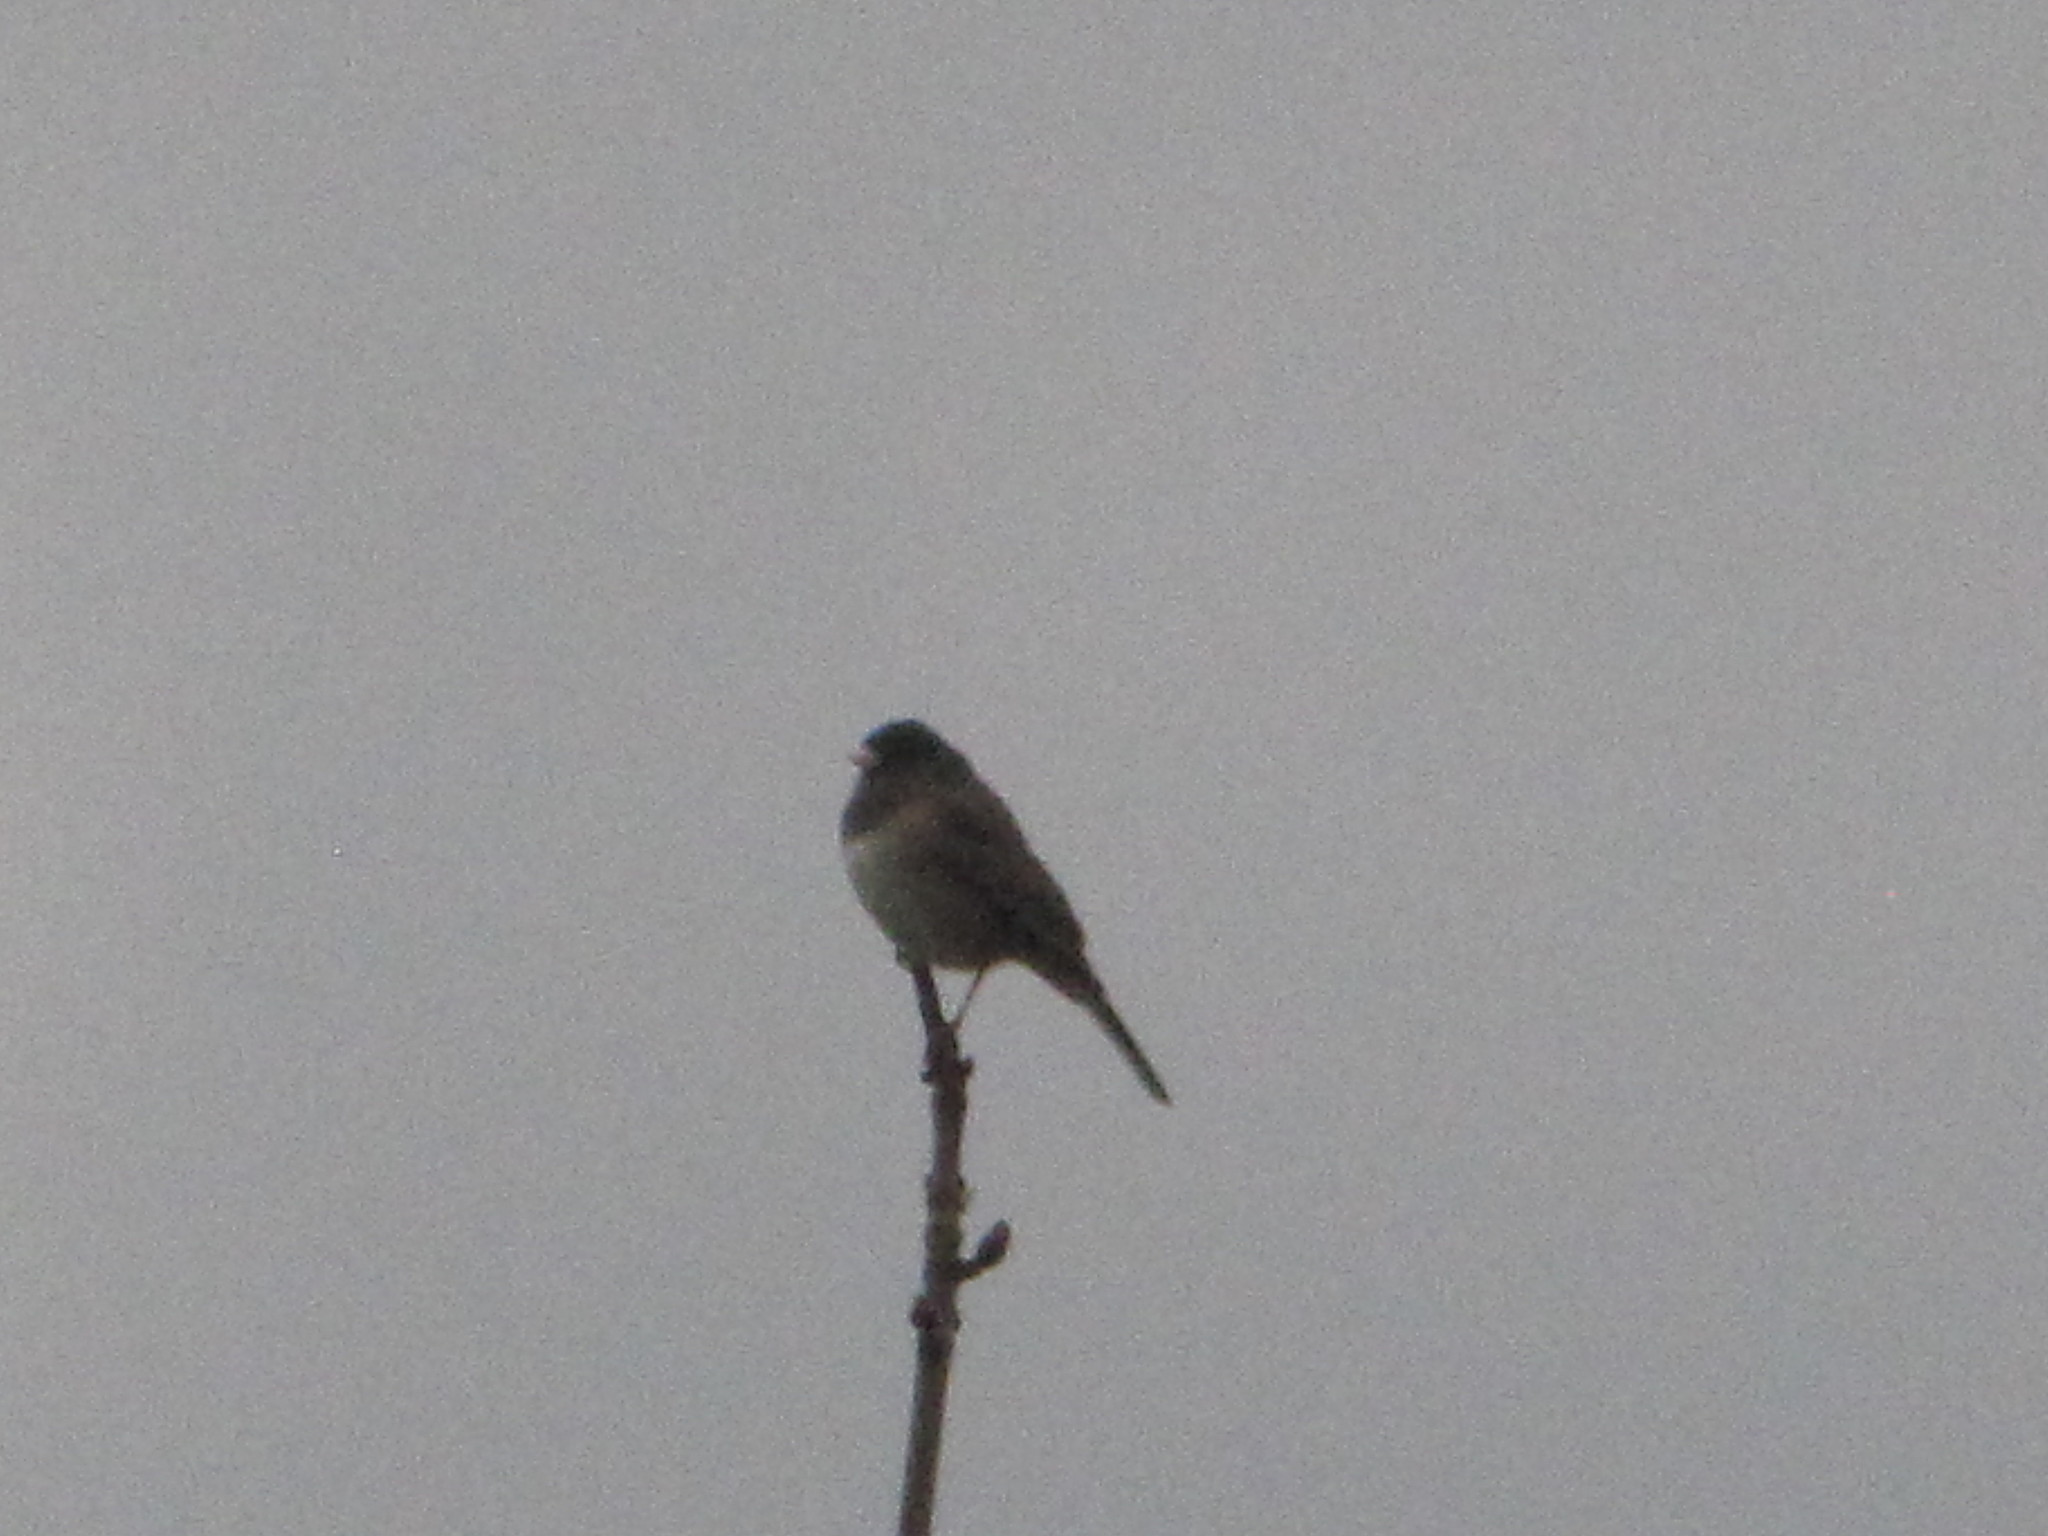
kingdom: Animalia
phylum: Chordata
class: Aves
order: Passeriformes
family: Passerellidae
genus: Junco
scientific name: Junco hyemalis
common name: Dark-eyed junco
